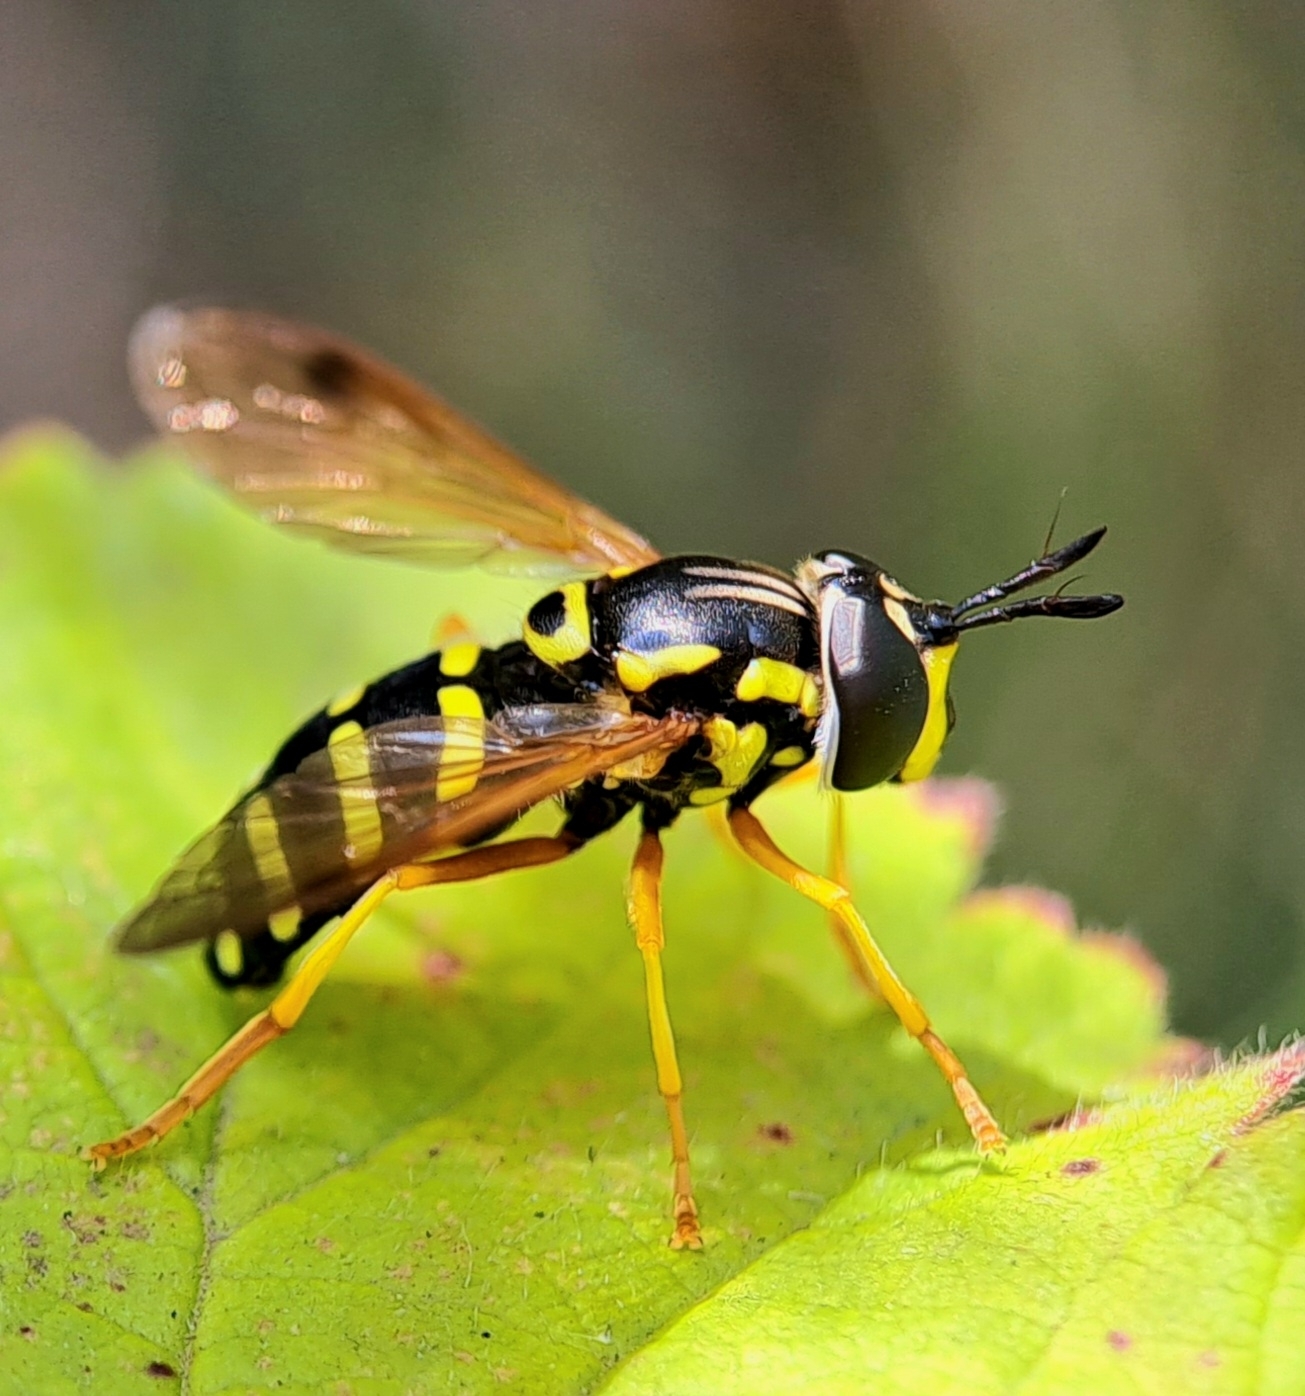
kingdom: Animalia
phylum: Arthropoda
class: Insecta
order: Diptera
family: Syrphidae
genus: Chrysotoxum
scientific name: Chrysotoxum festivum
